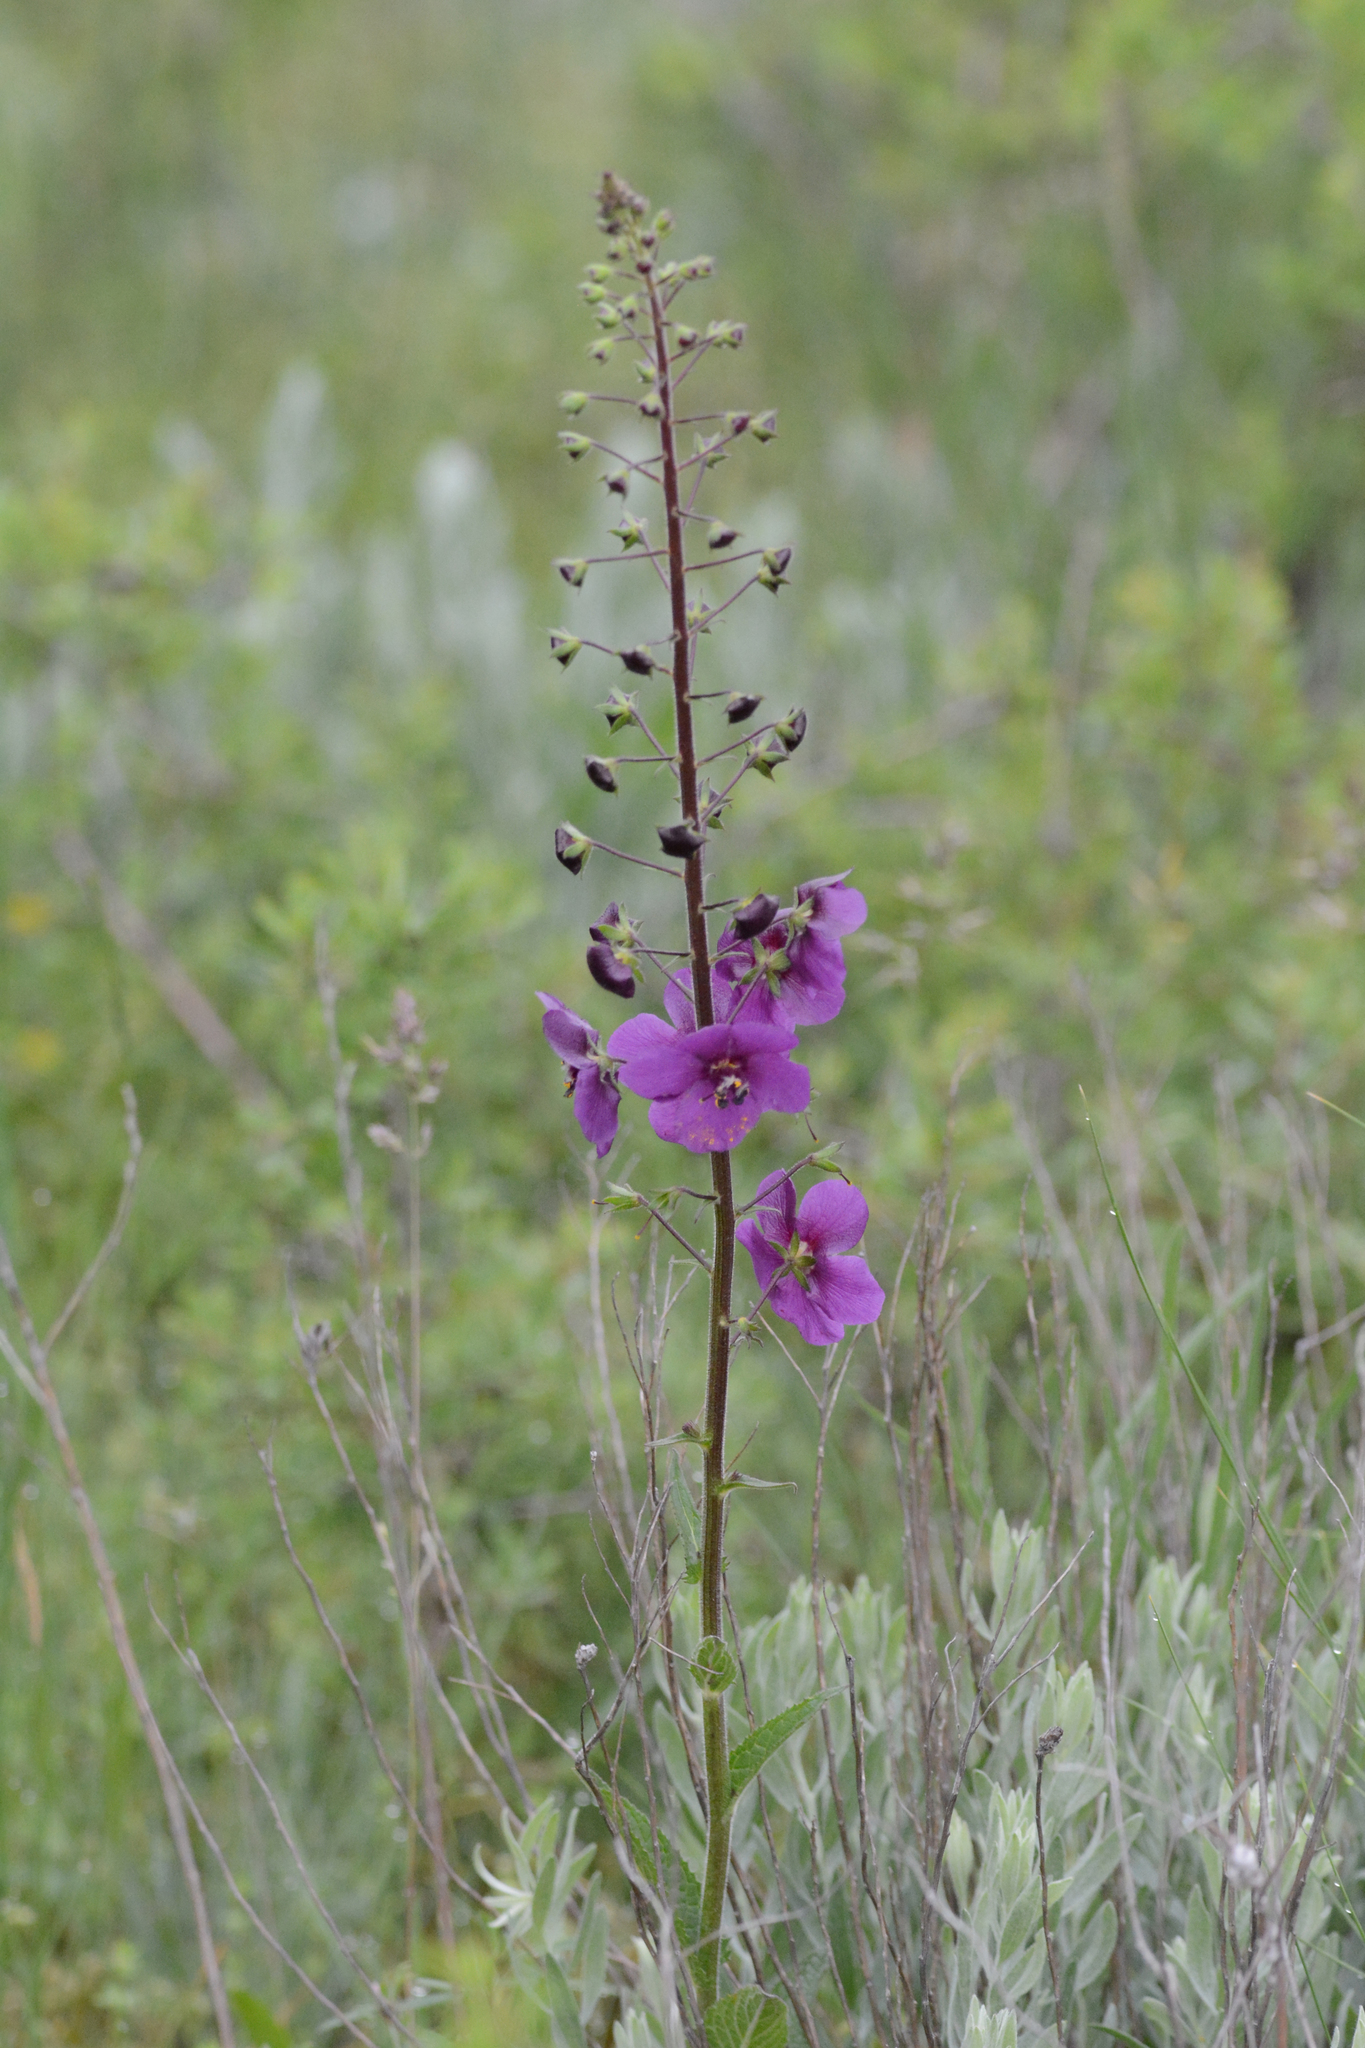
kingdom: Plantae
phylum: Tracheophyta
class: Magnoliopsida
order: Lamiales
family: Scrophulariaceae
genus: Verbascum
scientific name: Verbascum phoeniceum
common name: Purple mullein
